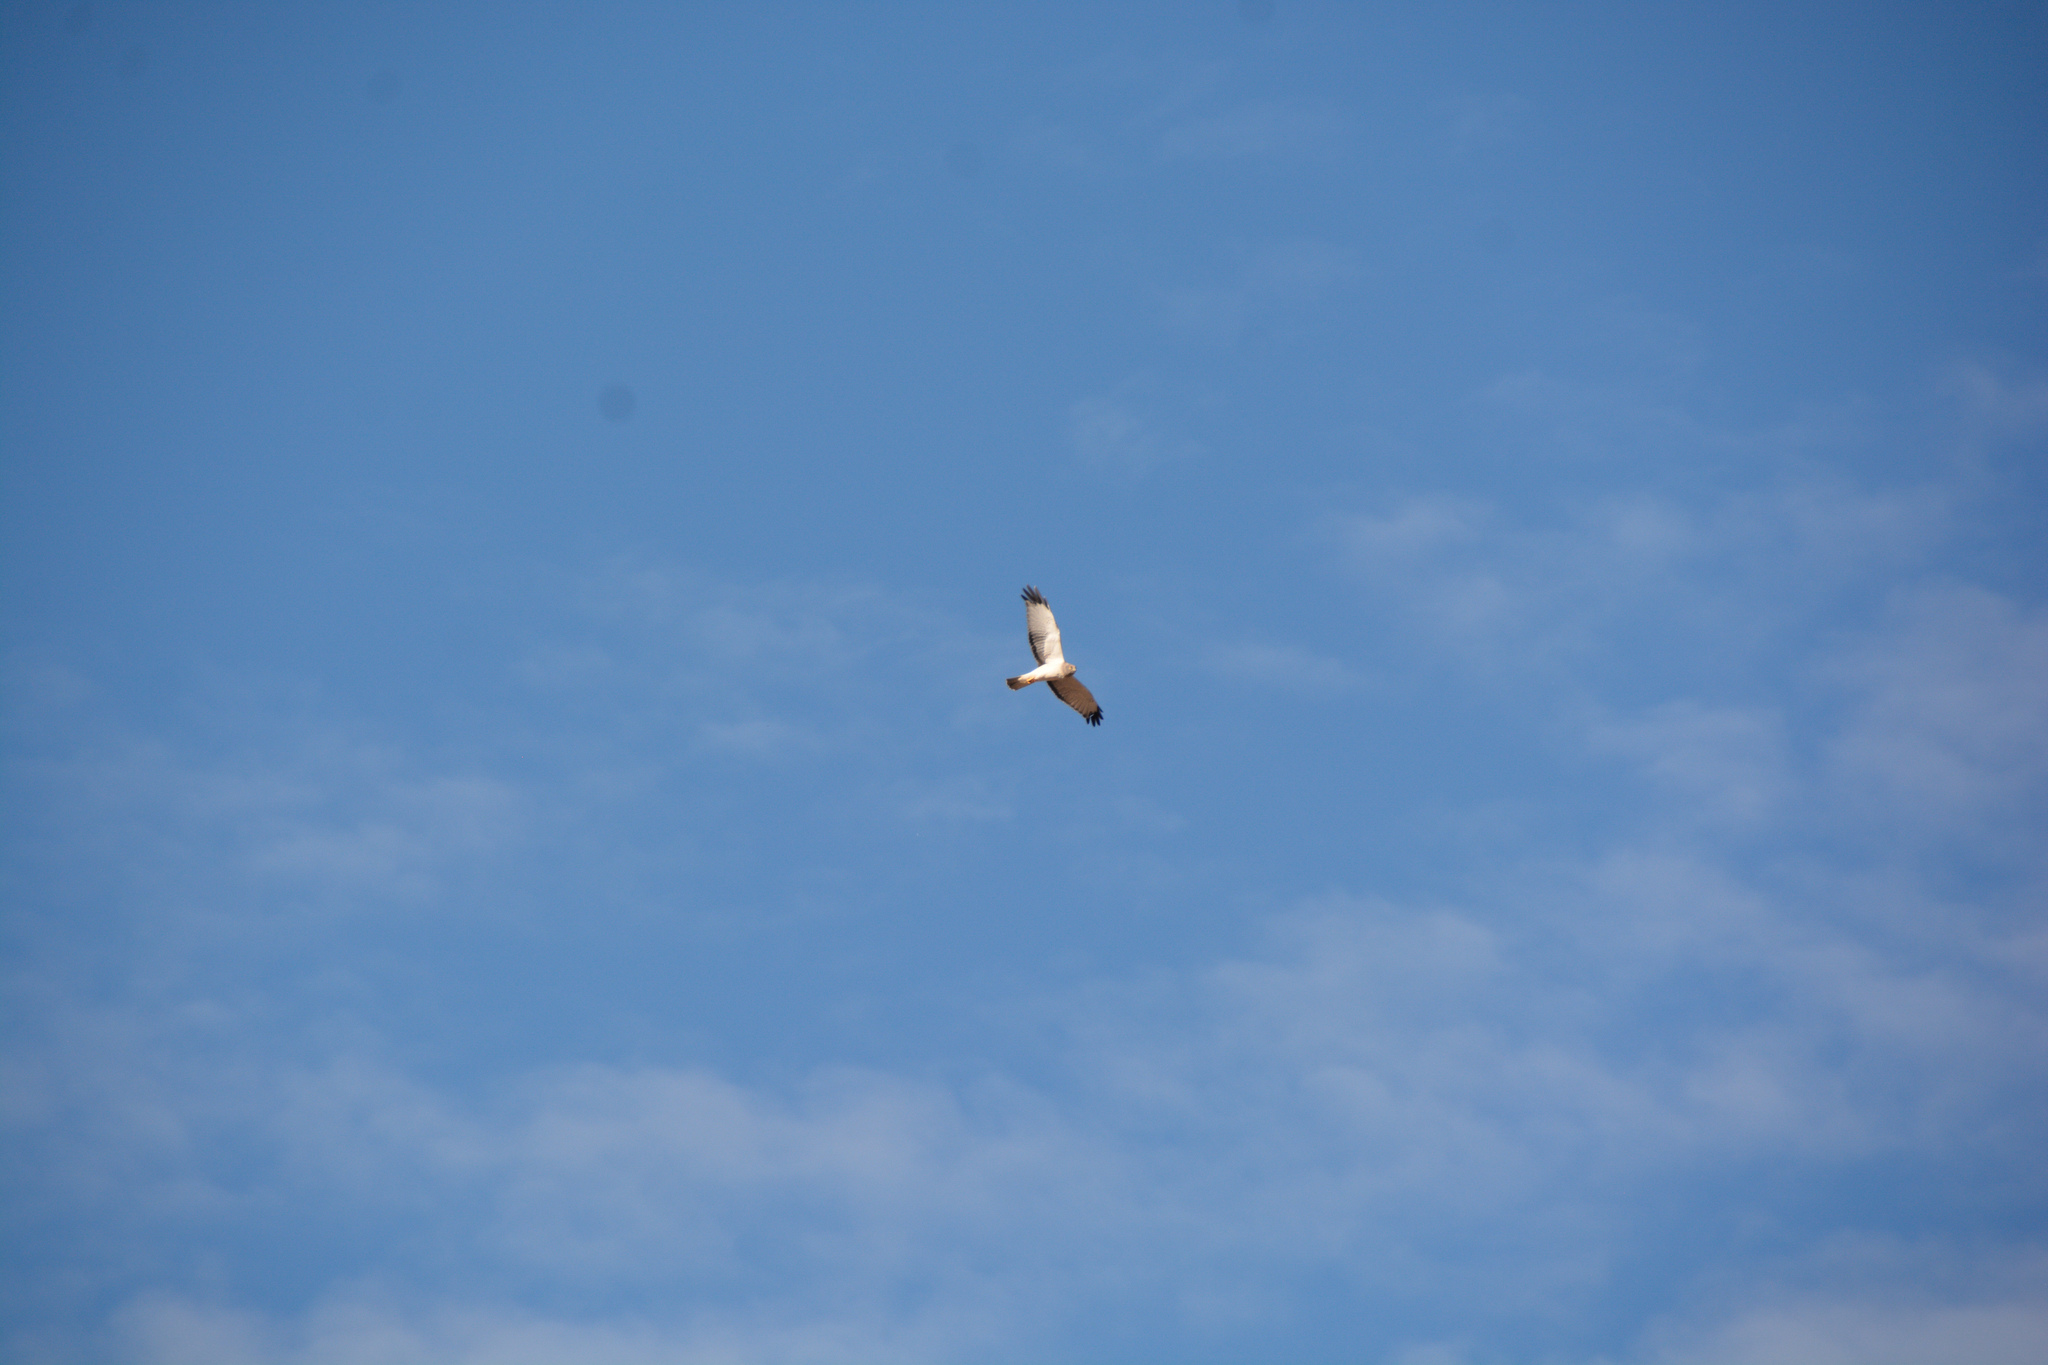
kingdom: Animalia
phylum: Chordata
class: Aves
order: Accipitriformes
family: Accipitridae
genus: Circus
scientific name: Circus cyaneus
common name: Hen harrier
